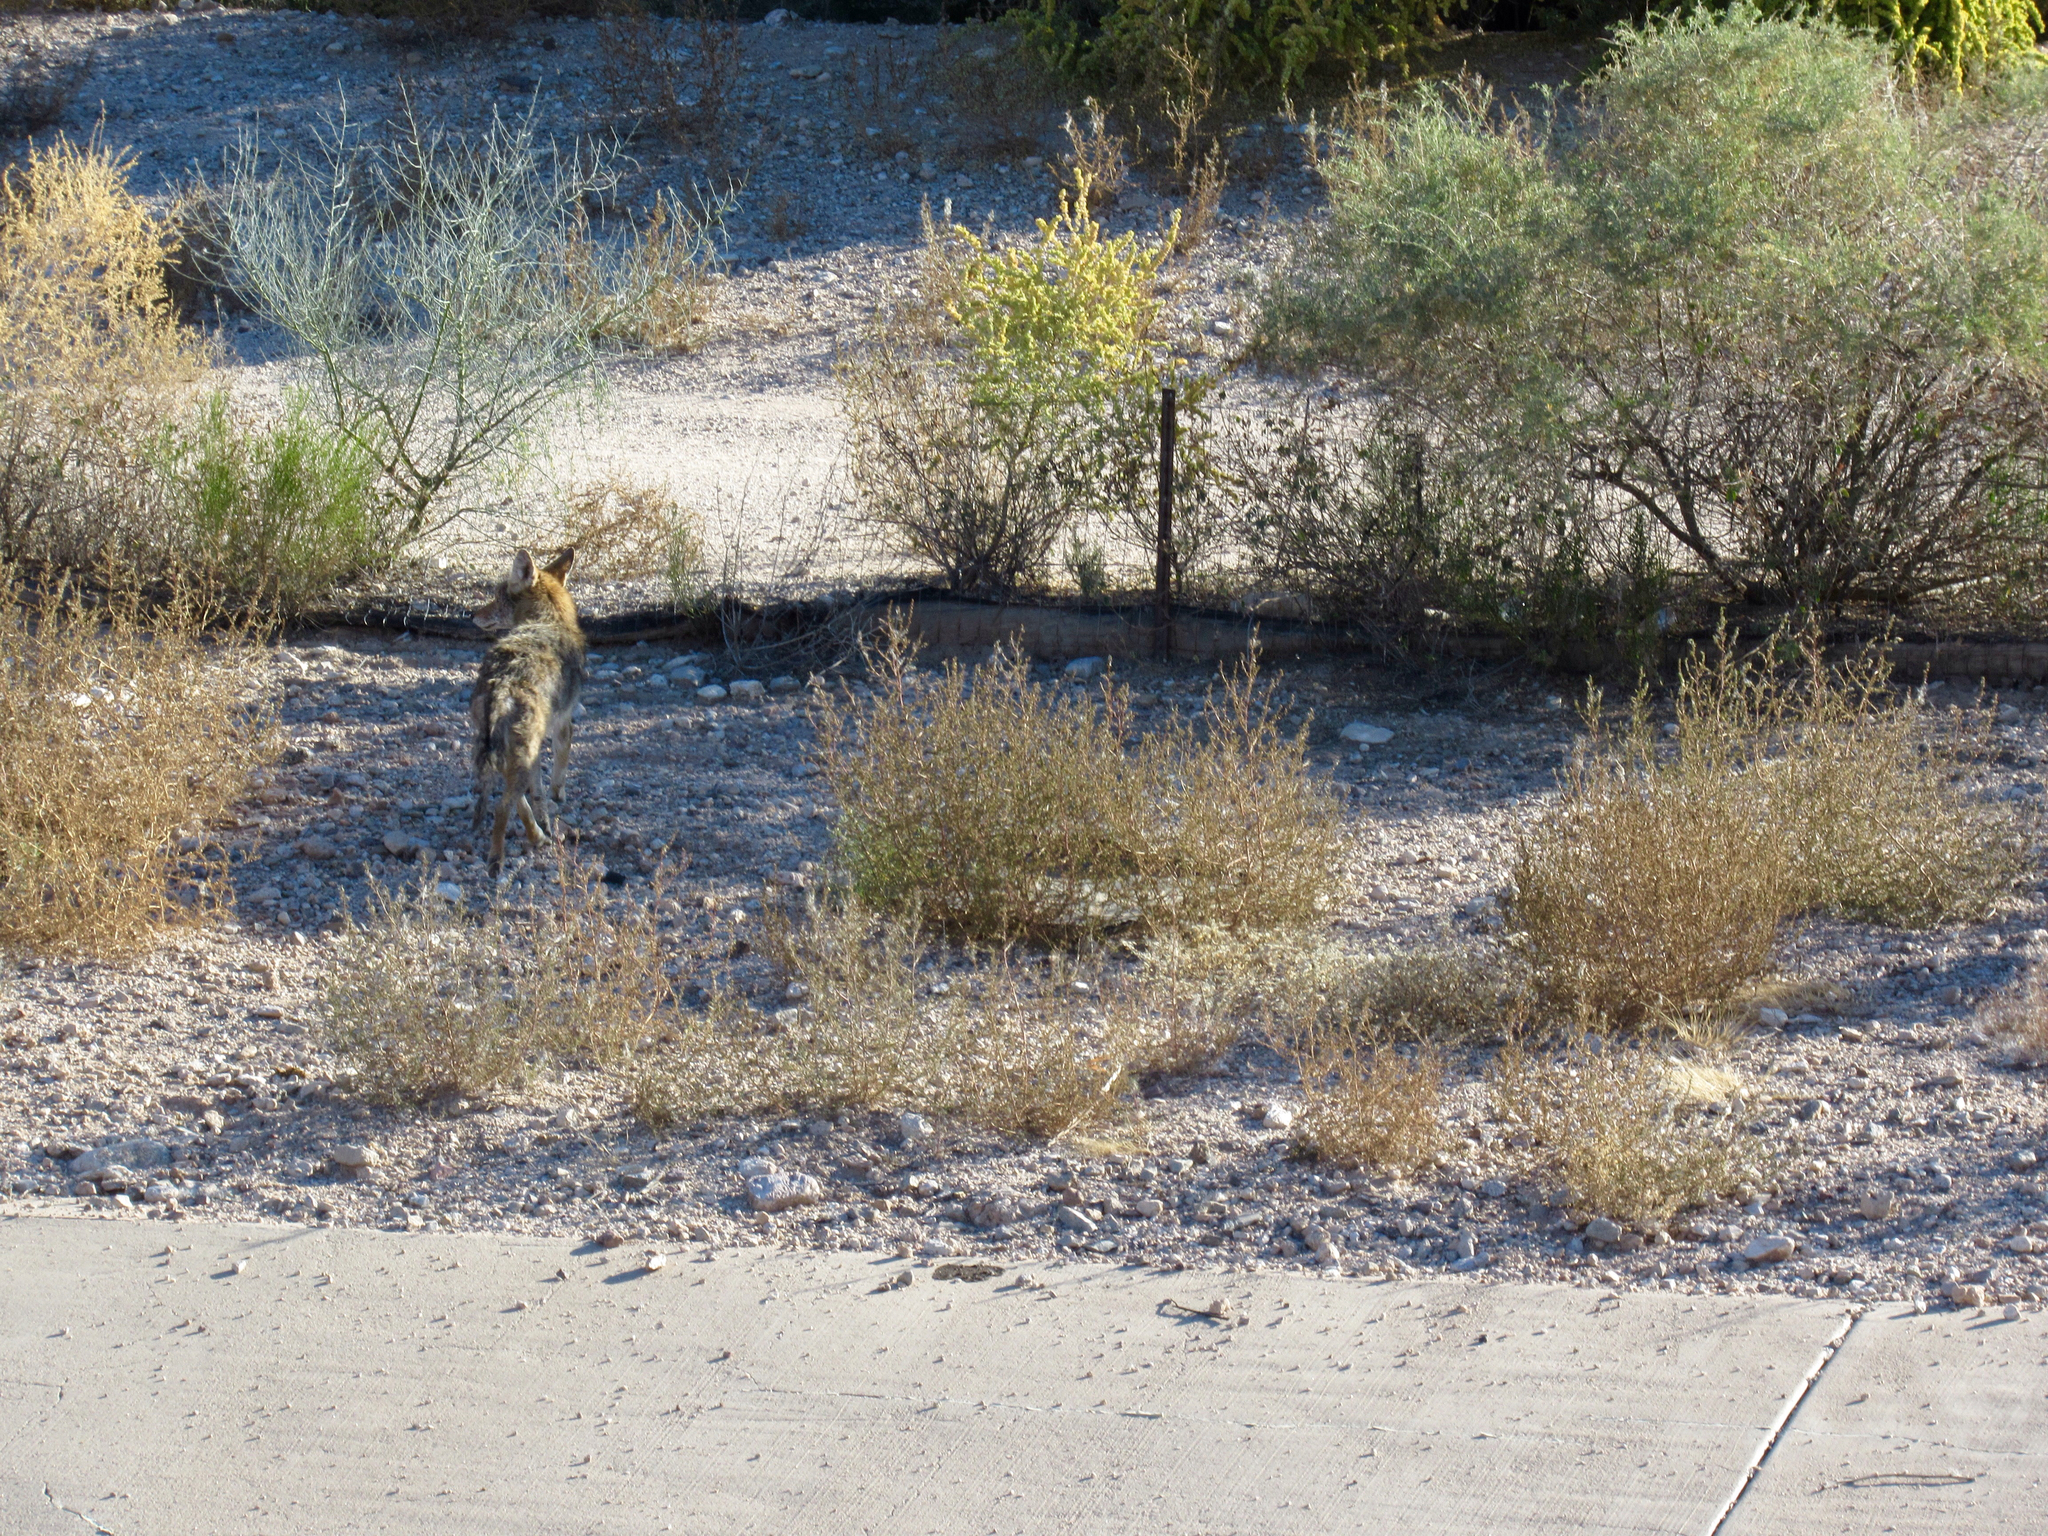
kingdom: Animalia
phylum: Chordata
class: Mammalia
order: Carnivora
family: Canidae
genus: Canis
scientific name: Canis latrans
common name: Coyote
